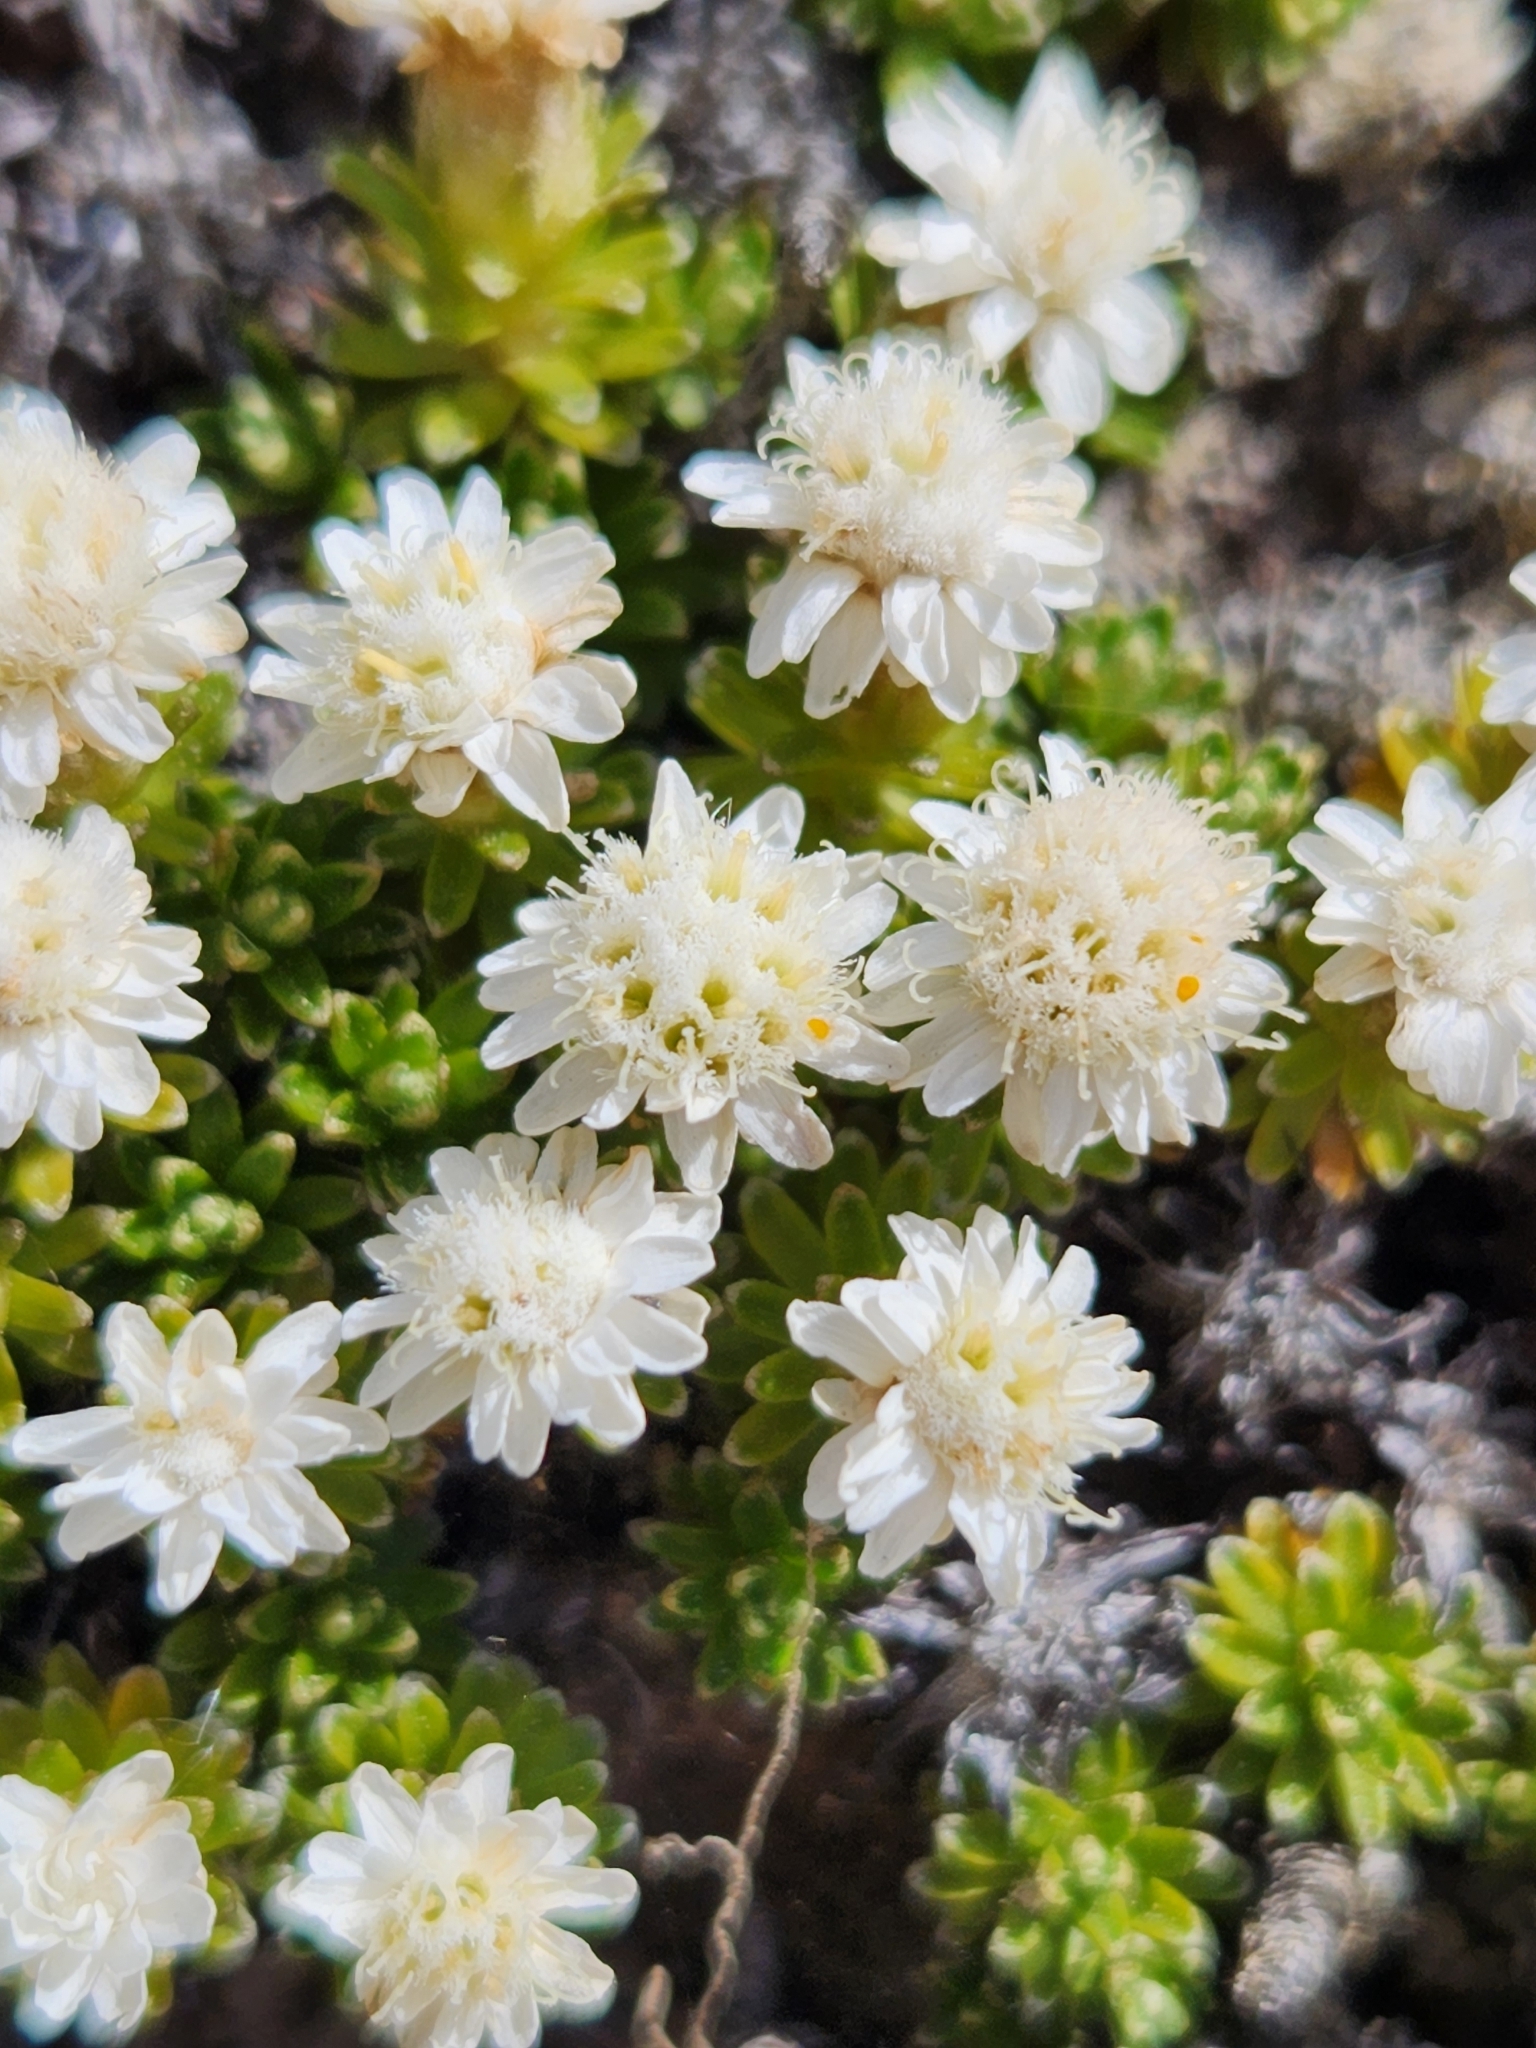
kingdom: Plantae
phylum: Tracheophyta
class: Magnoliopsida
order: Asterales
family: Asteraceae
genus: Raoulia
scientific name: Raoulia subsericea
